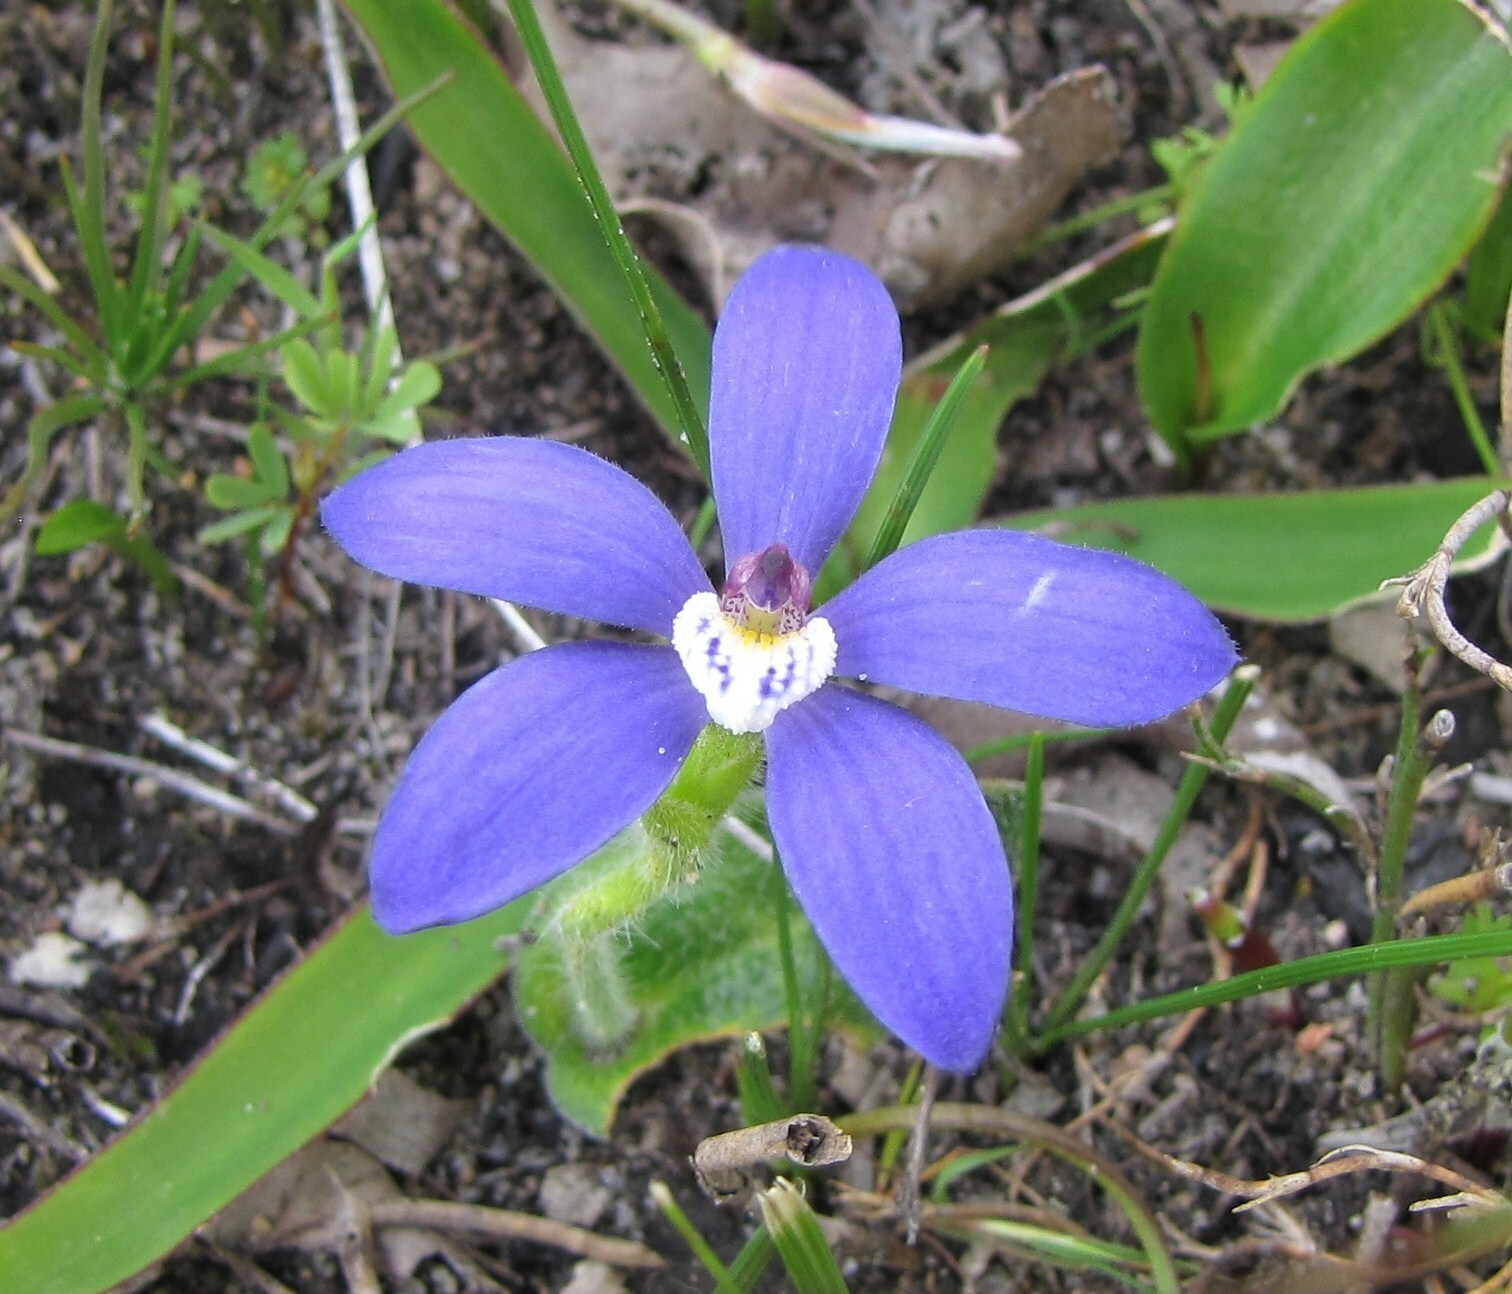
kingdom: Plantae
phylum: Tracheophyta
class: Liliopsida
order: Asparagales
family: Orchidaceae
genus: Caladenia
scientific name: Caladenia gemmata
